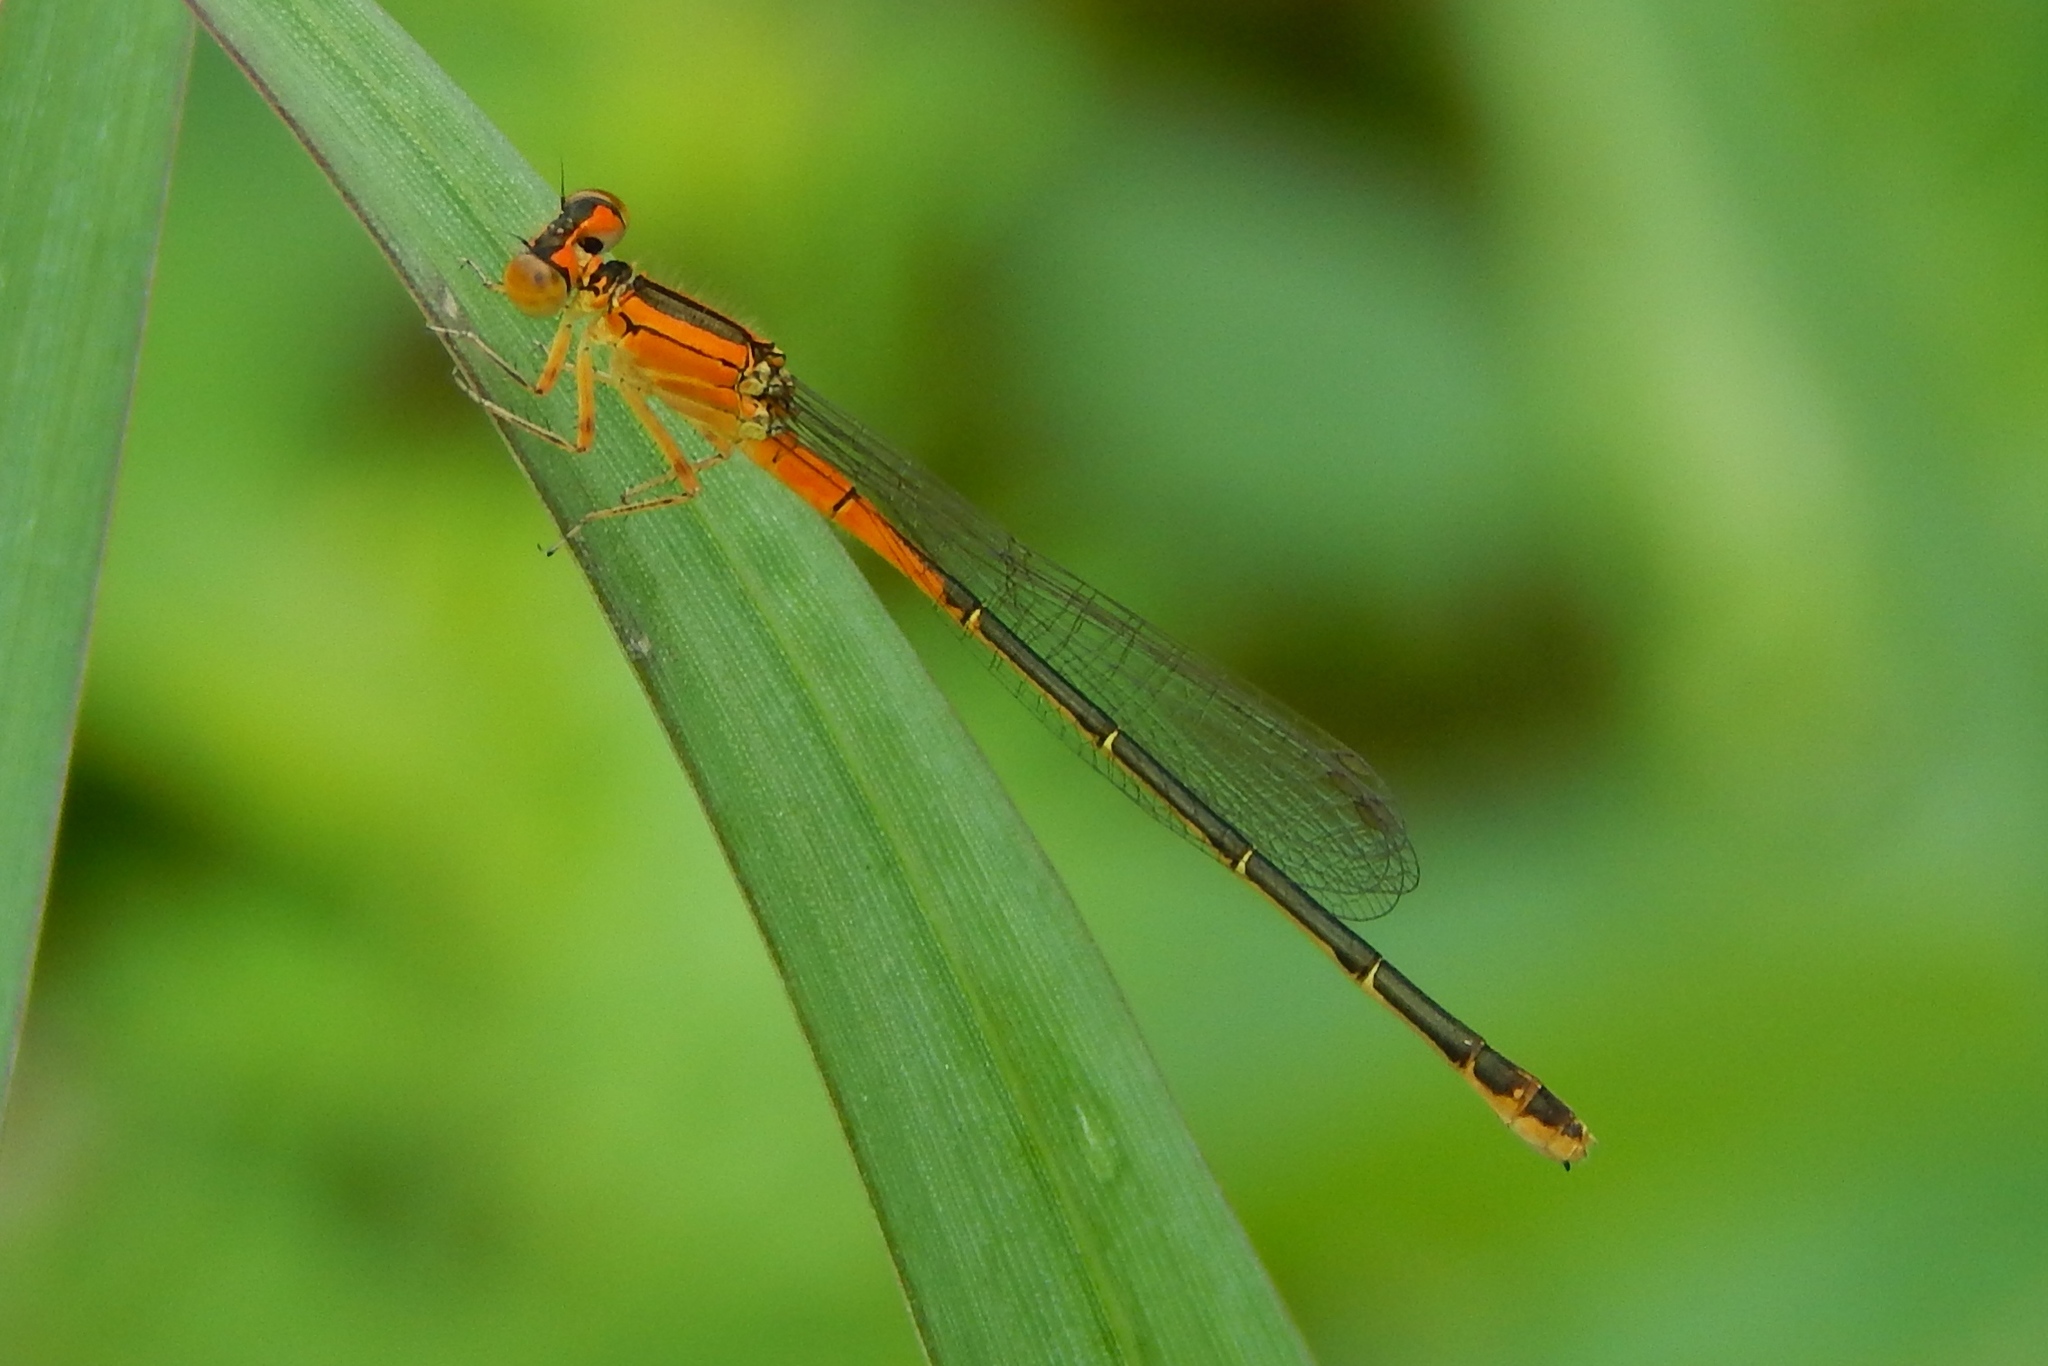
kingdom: Animalia
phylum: Arthropoda
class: Insecta
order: Odonata
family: Coenagrionidae
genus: Ischnura
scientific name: Ischnura verticalis
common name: Eastern forktail
